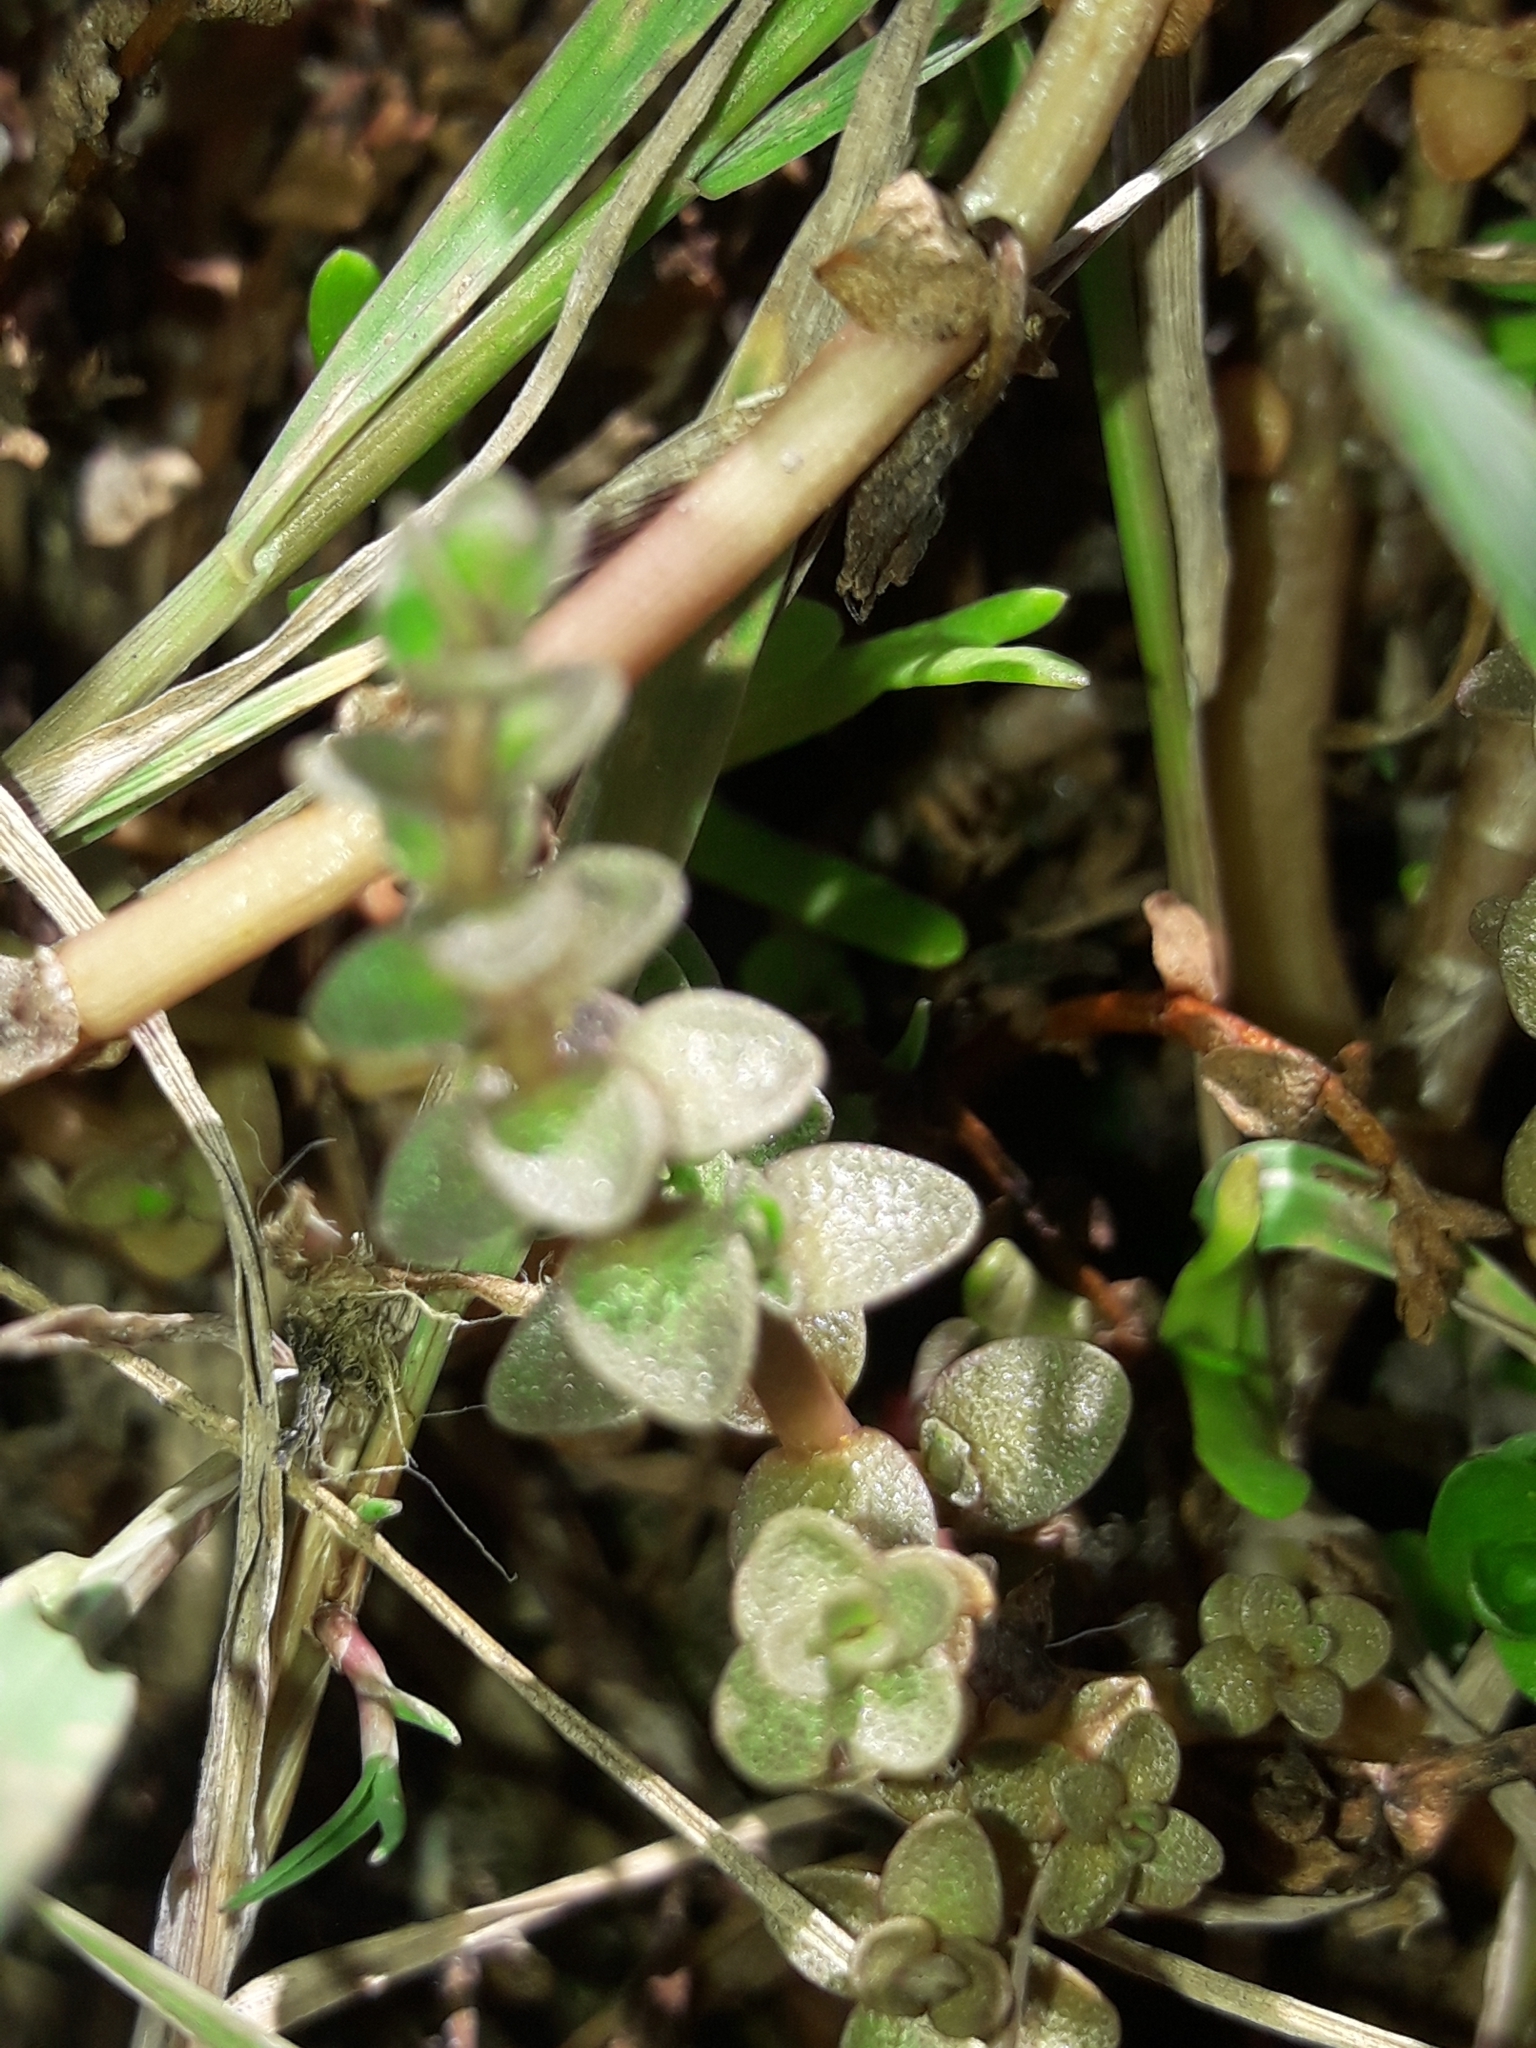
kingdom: Plantae
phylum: Tracheophyta
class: Magnoliopsida
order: Lamiales
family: Phrymaceae
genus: Thyridia
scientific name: Thyridia repens
